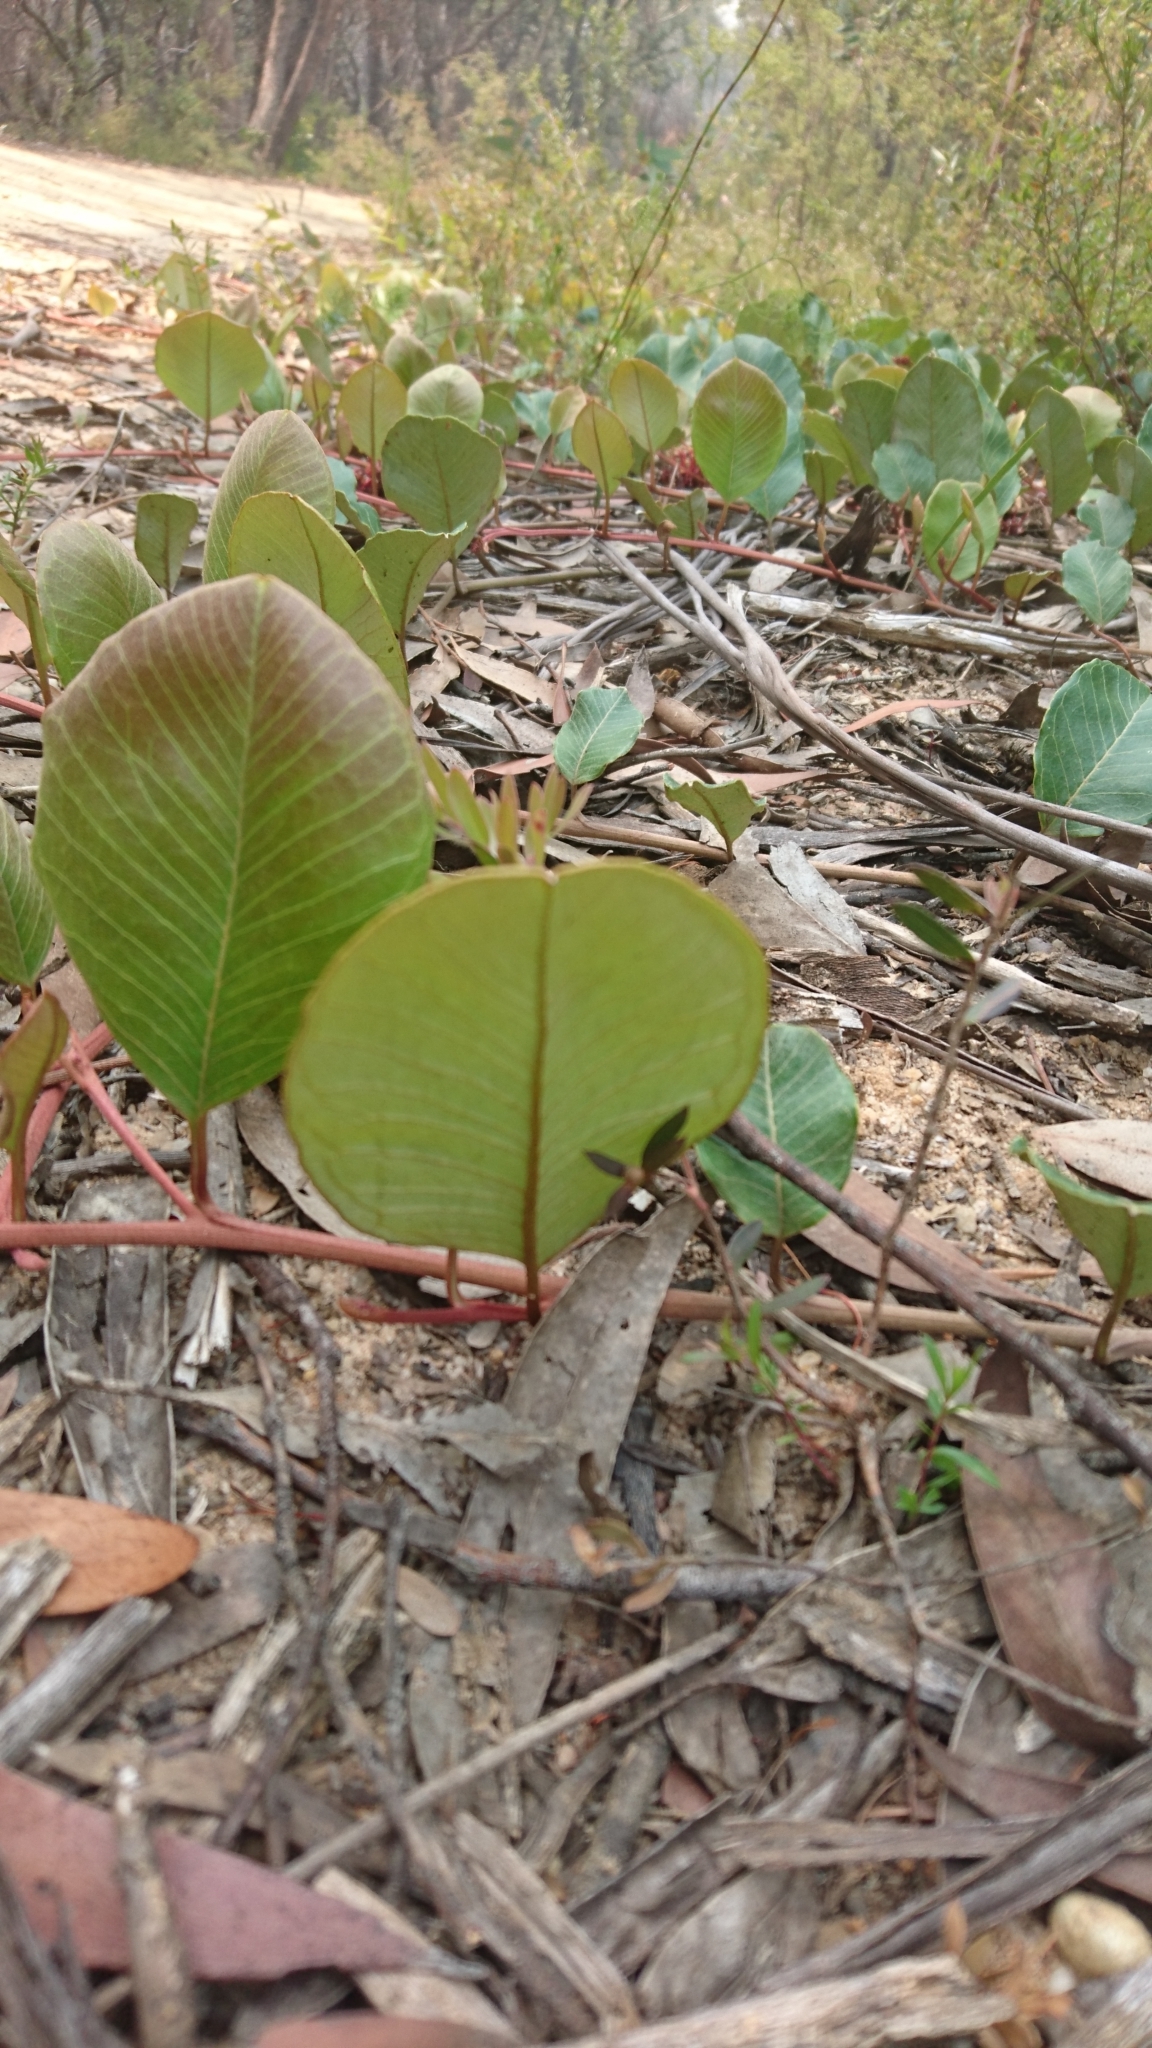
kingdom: Plantae
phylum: Tracheophyta
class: Magnoliopsida
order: Proteales
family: Proteaceae
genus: Grevillea
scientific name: Grevillea laurifolia
